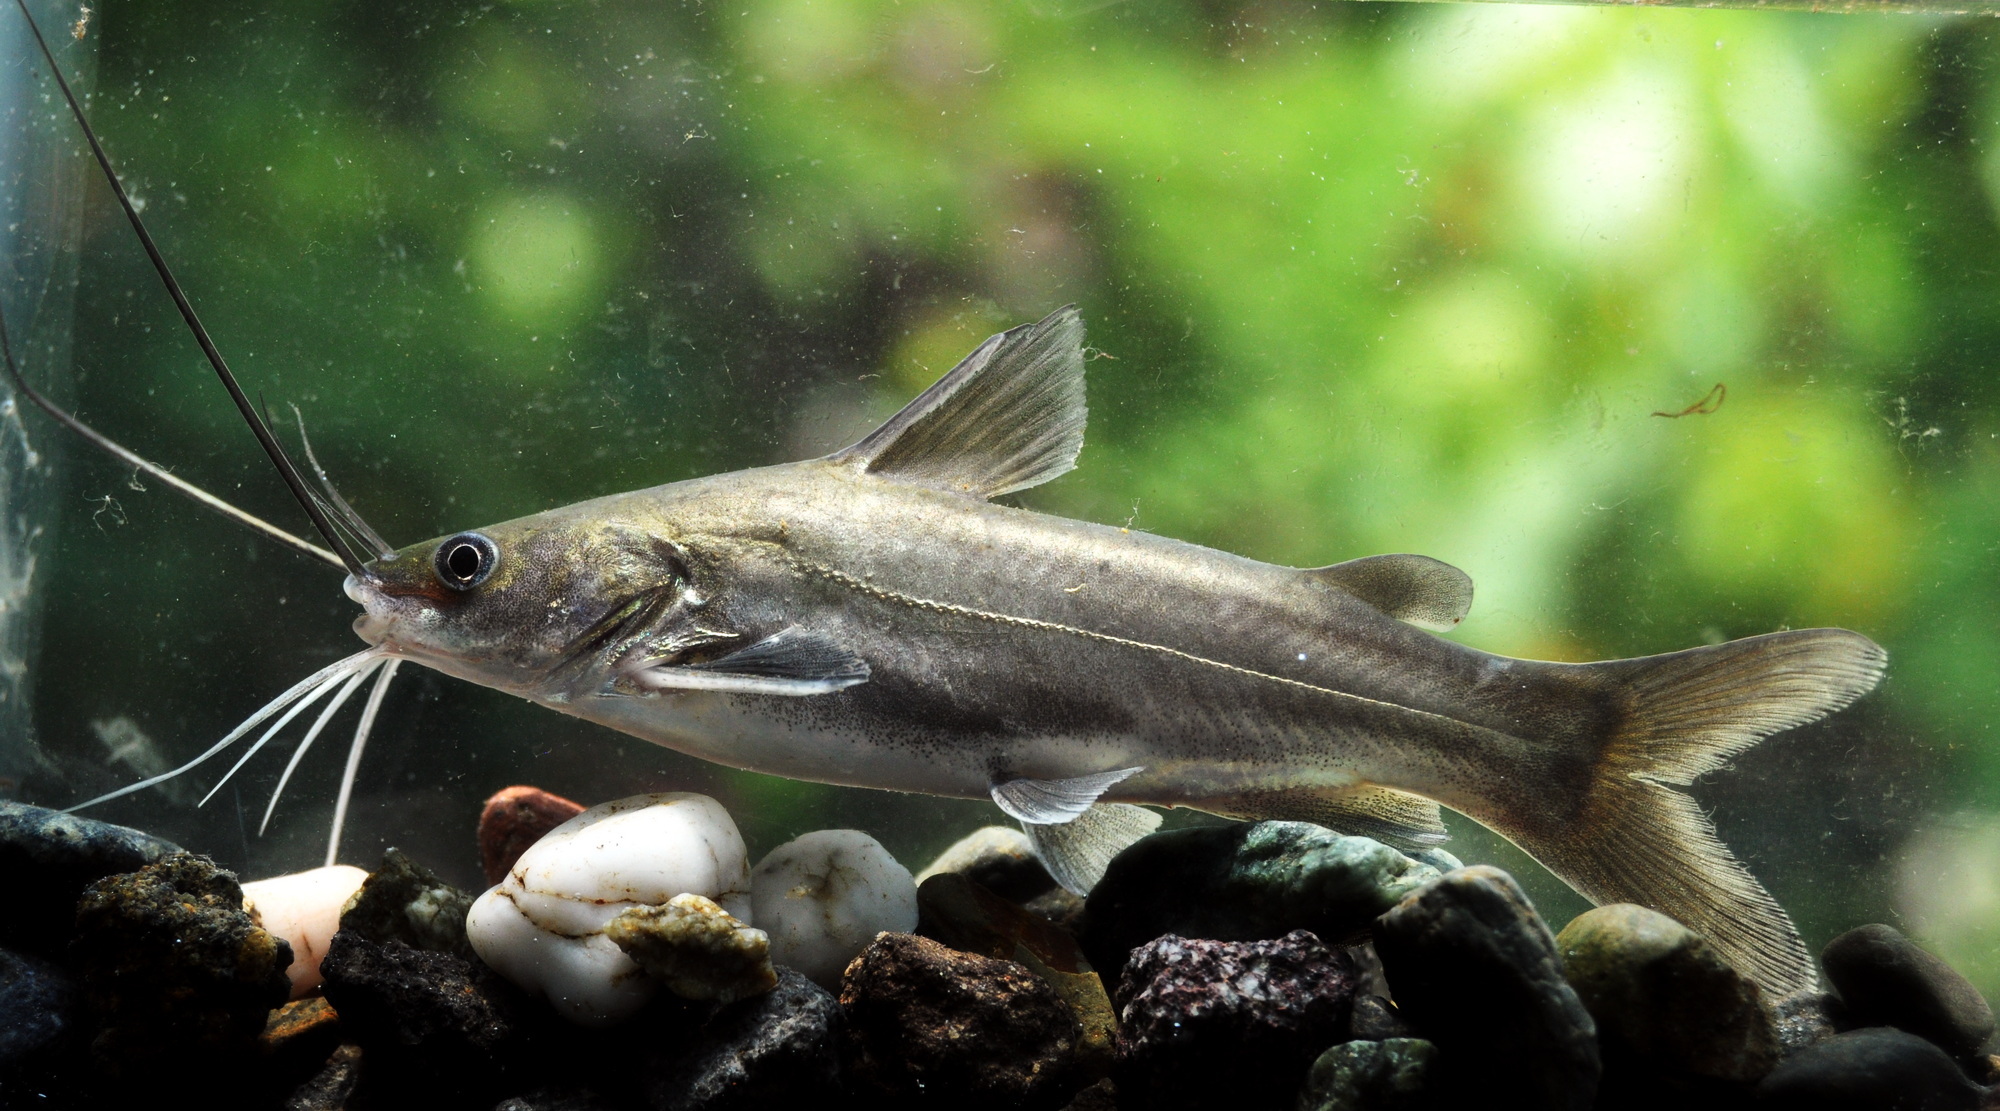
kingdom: Animalia
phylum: Chordata
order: Siluriformes
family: Bagridae
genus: Mystus
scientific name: Mystus gulio
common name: Long whiskers catfish
